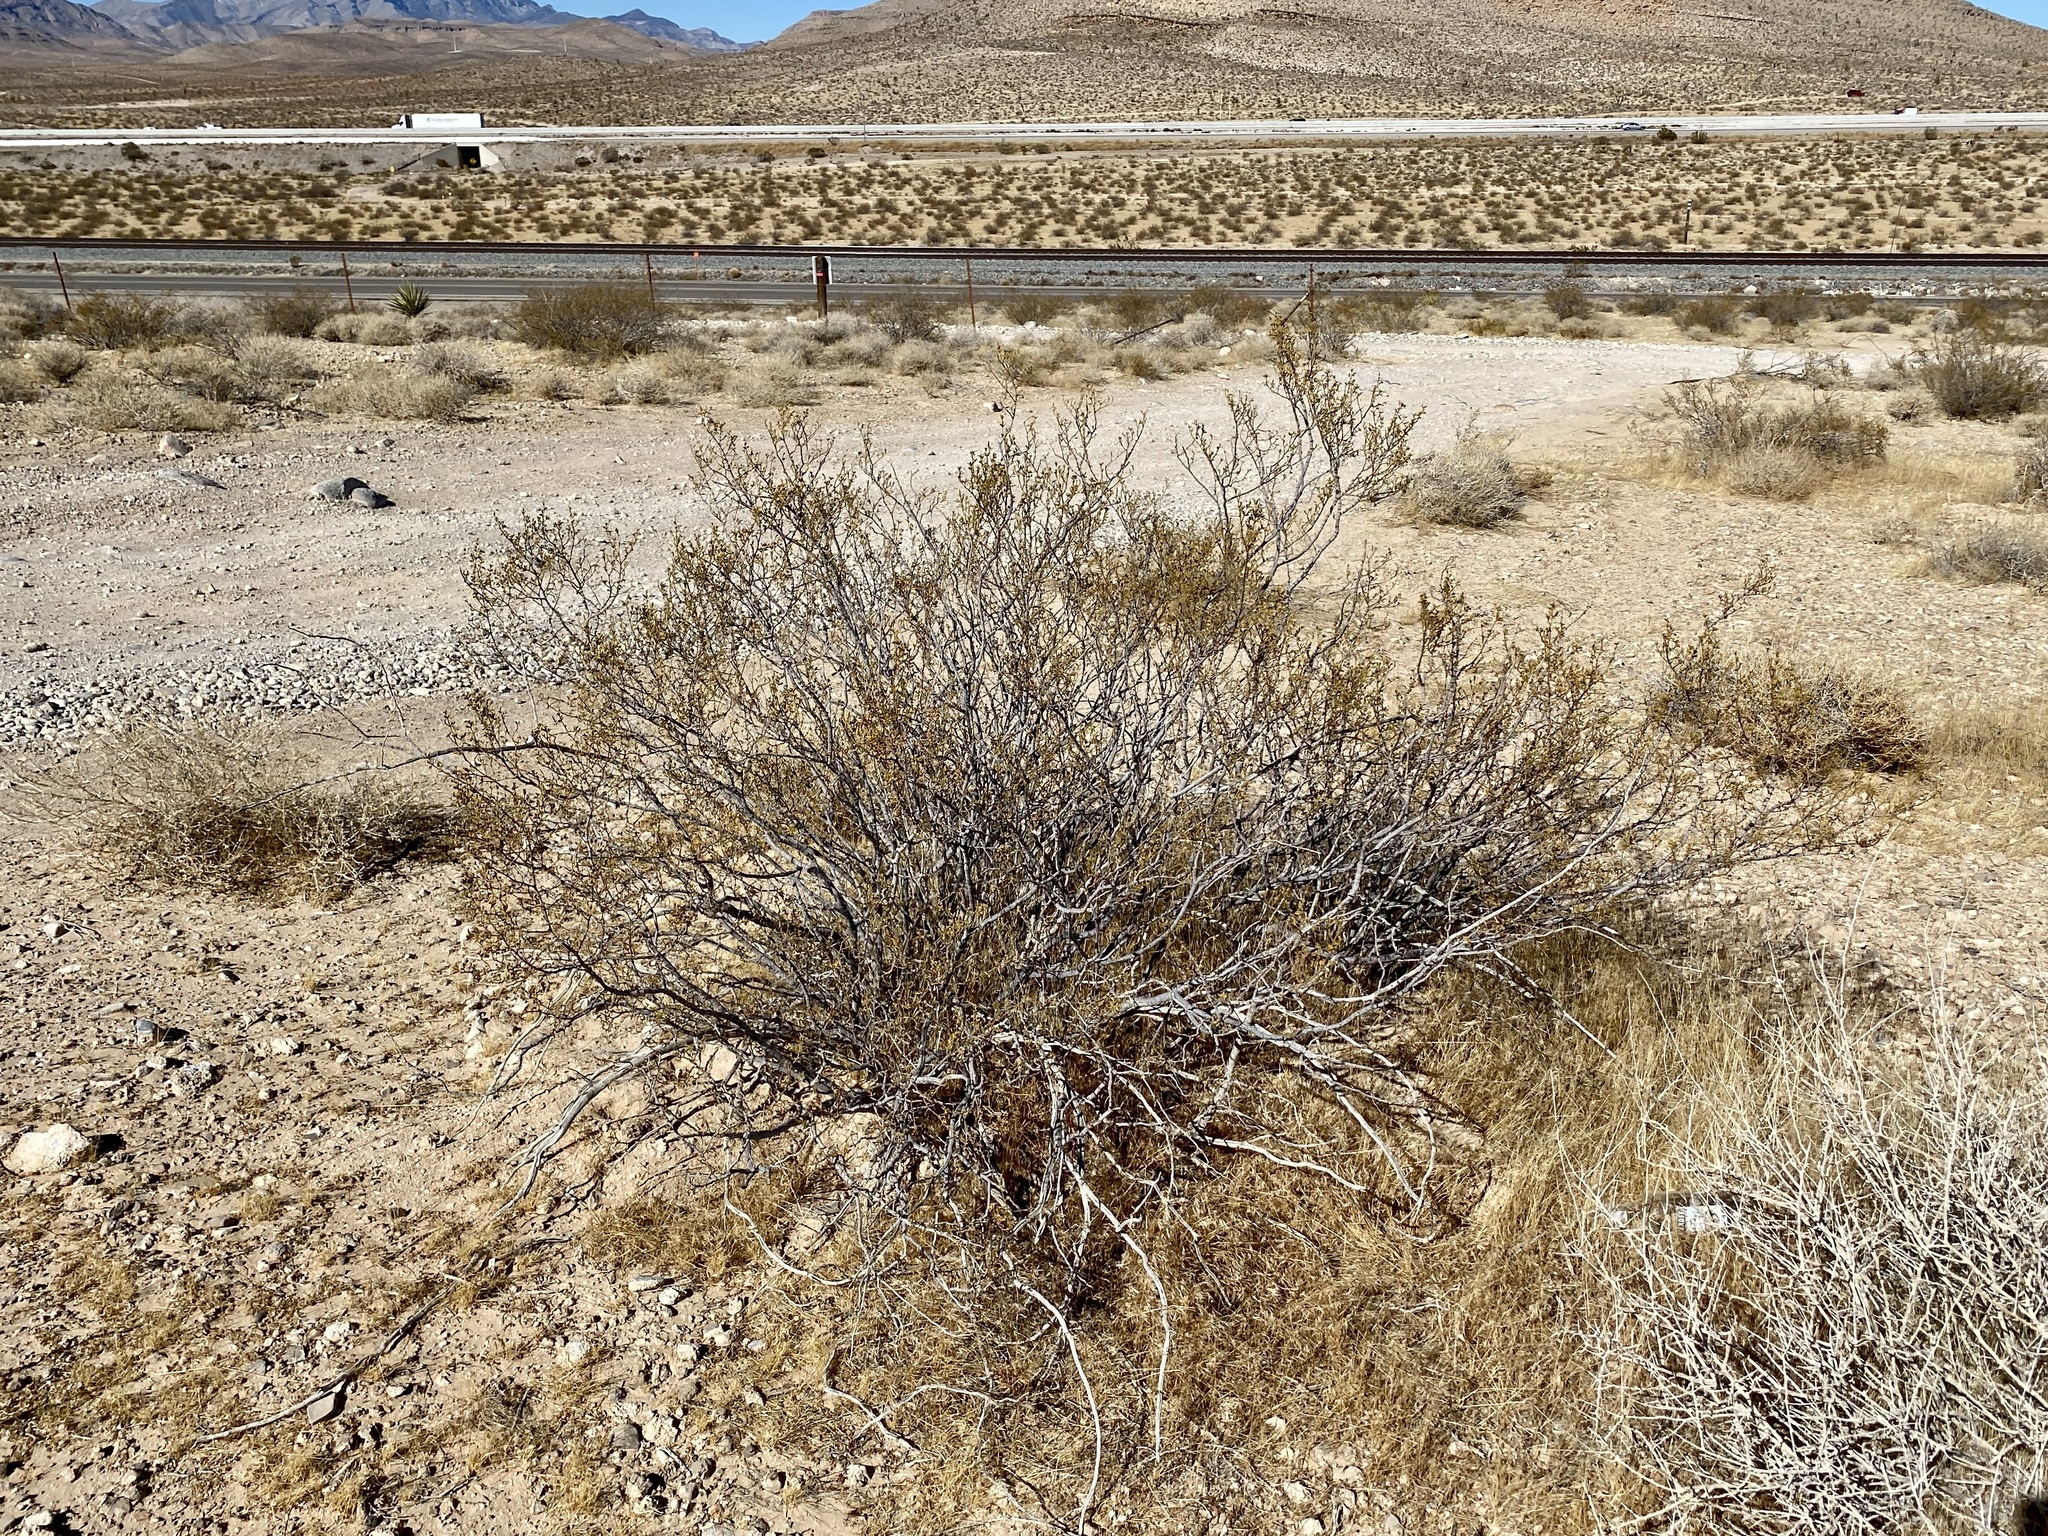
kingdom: Plantae
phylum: Tracheophyta
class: Magnoliopsida
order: Zygophyllales
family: Zygophyllaceae
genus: Larrea
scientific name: Larrea tridentata
